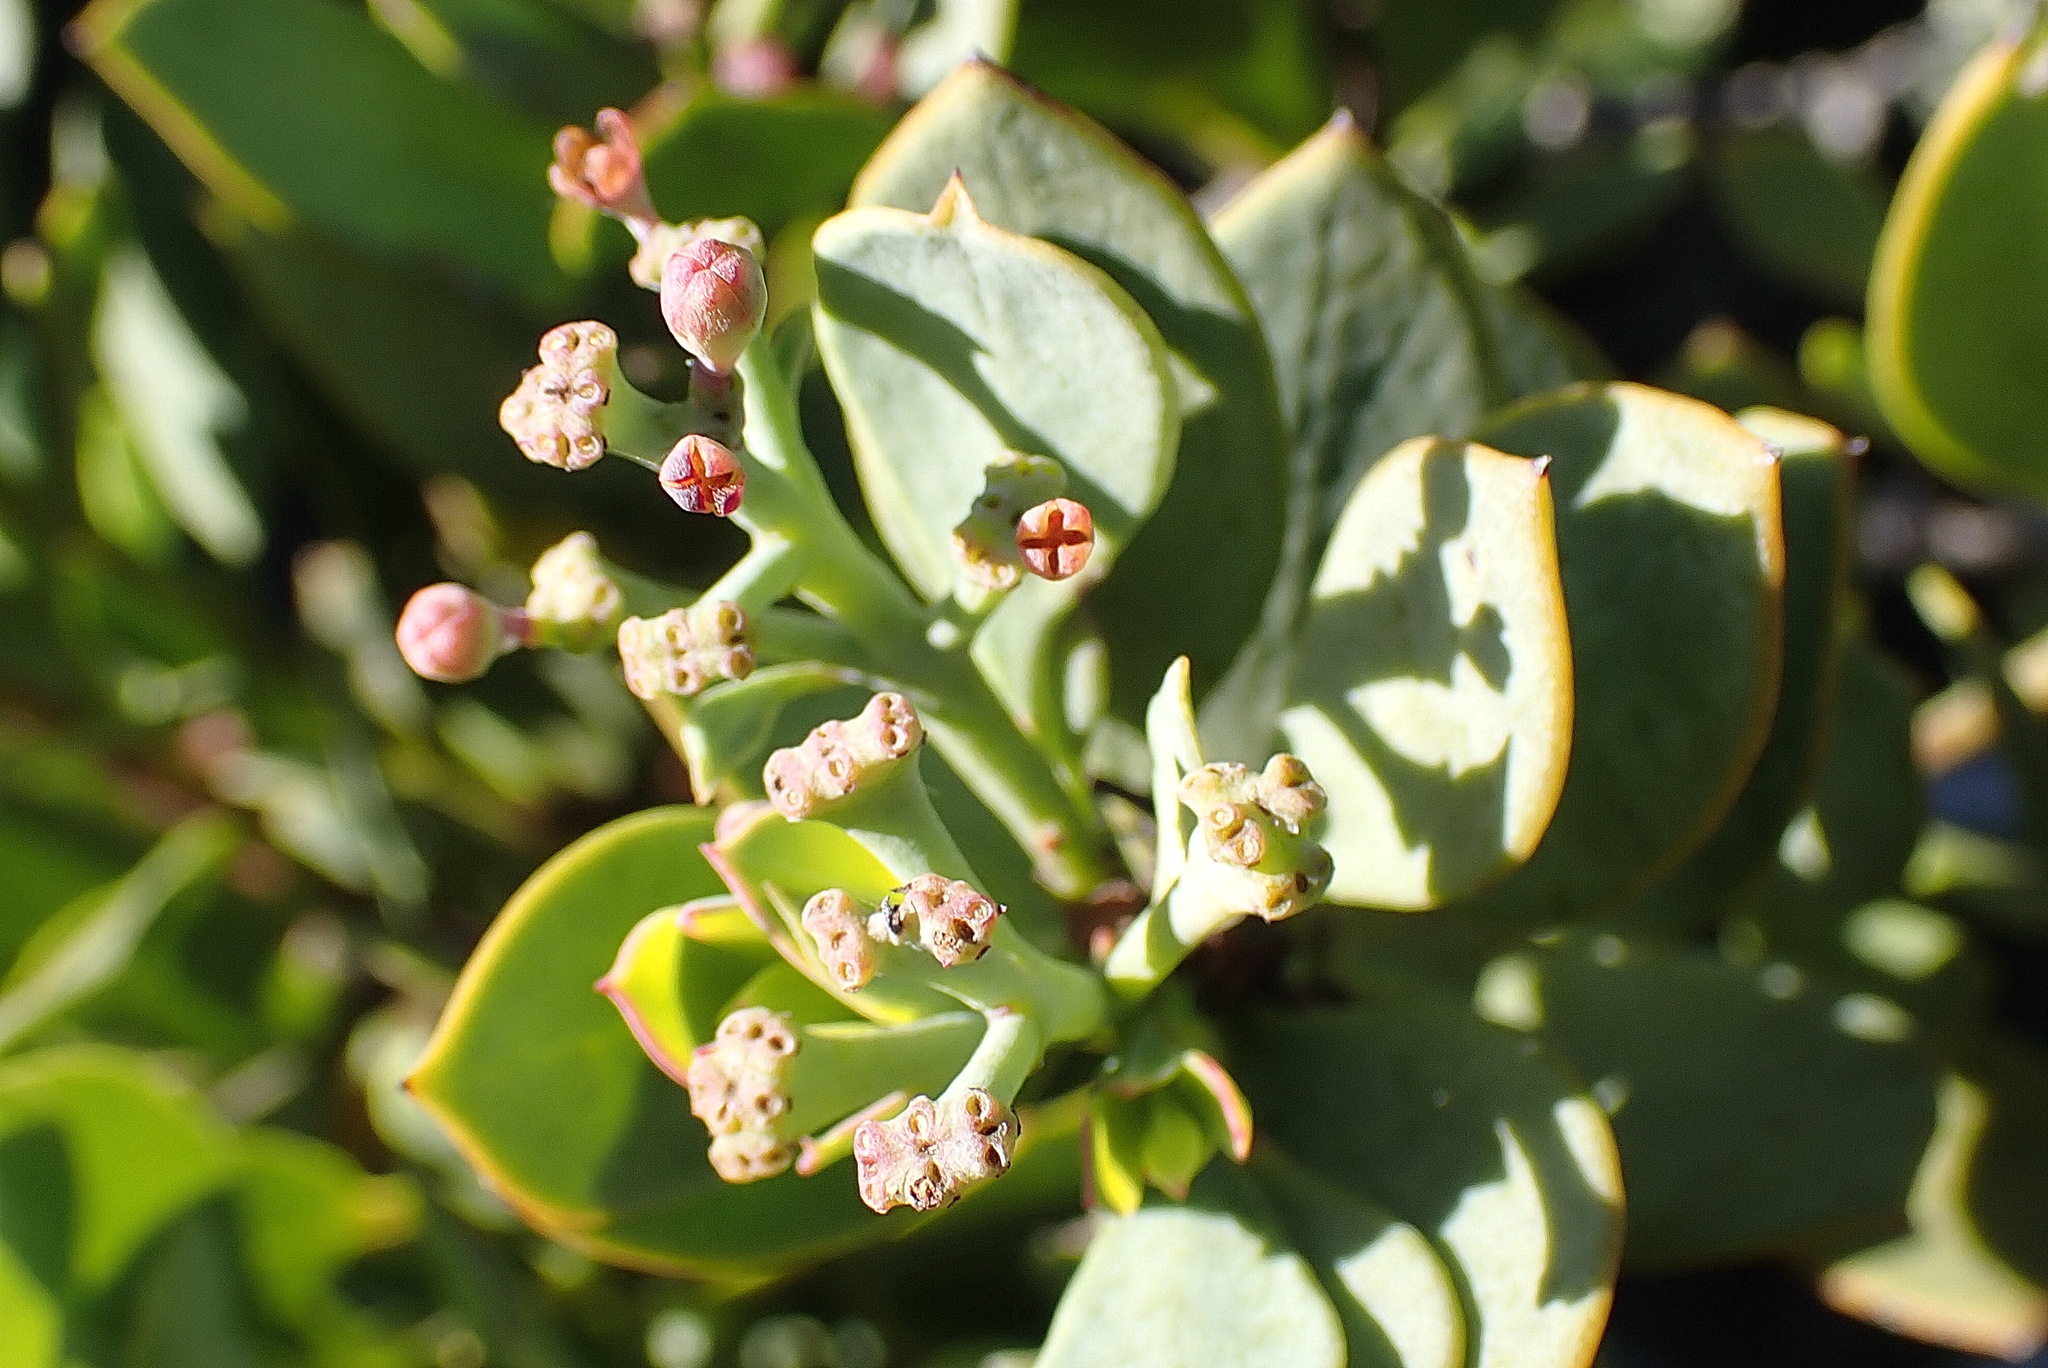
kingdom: Plantae
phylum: Tracheophyta
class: Magnoliopsida
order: Santalales
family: Santalaceae
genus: Osyris
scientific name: Osyris compressa
